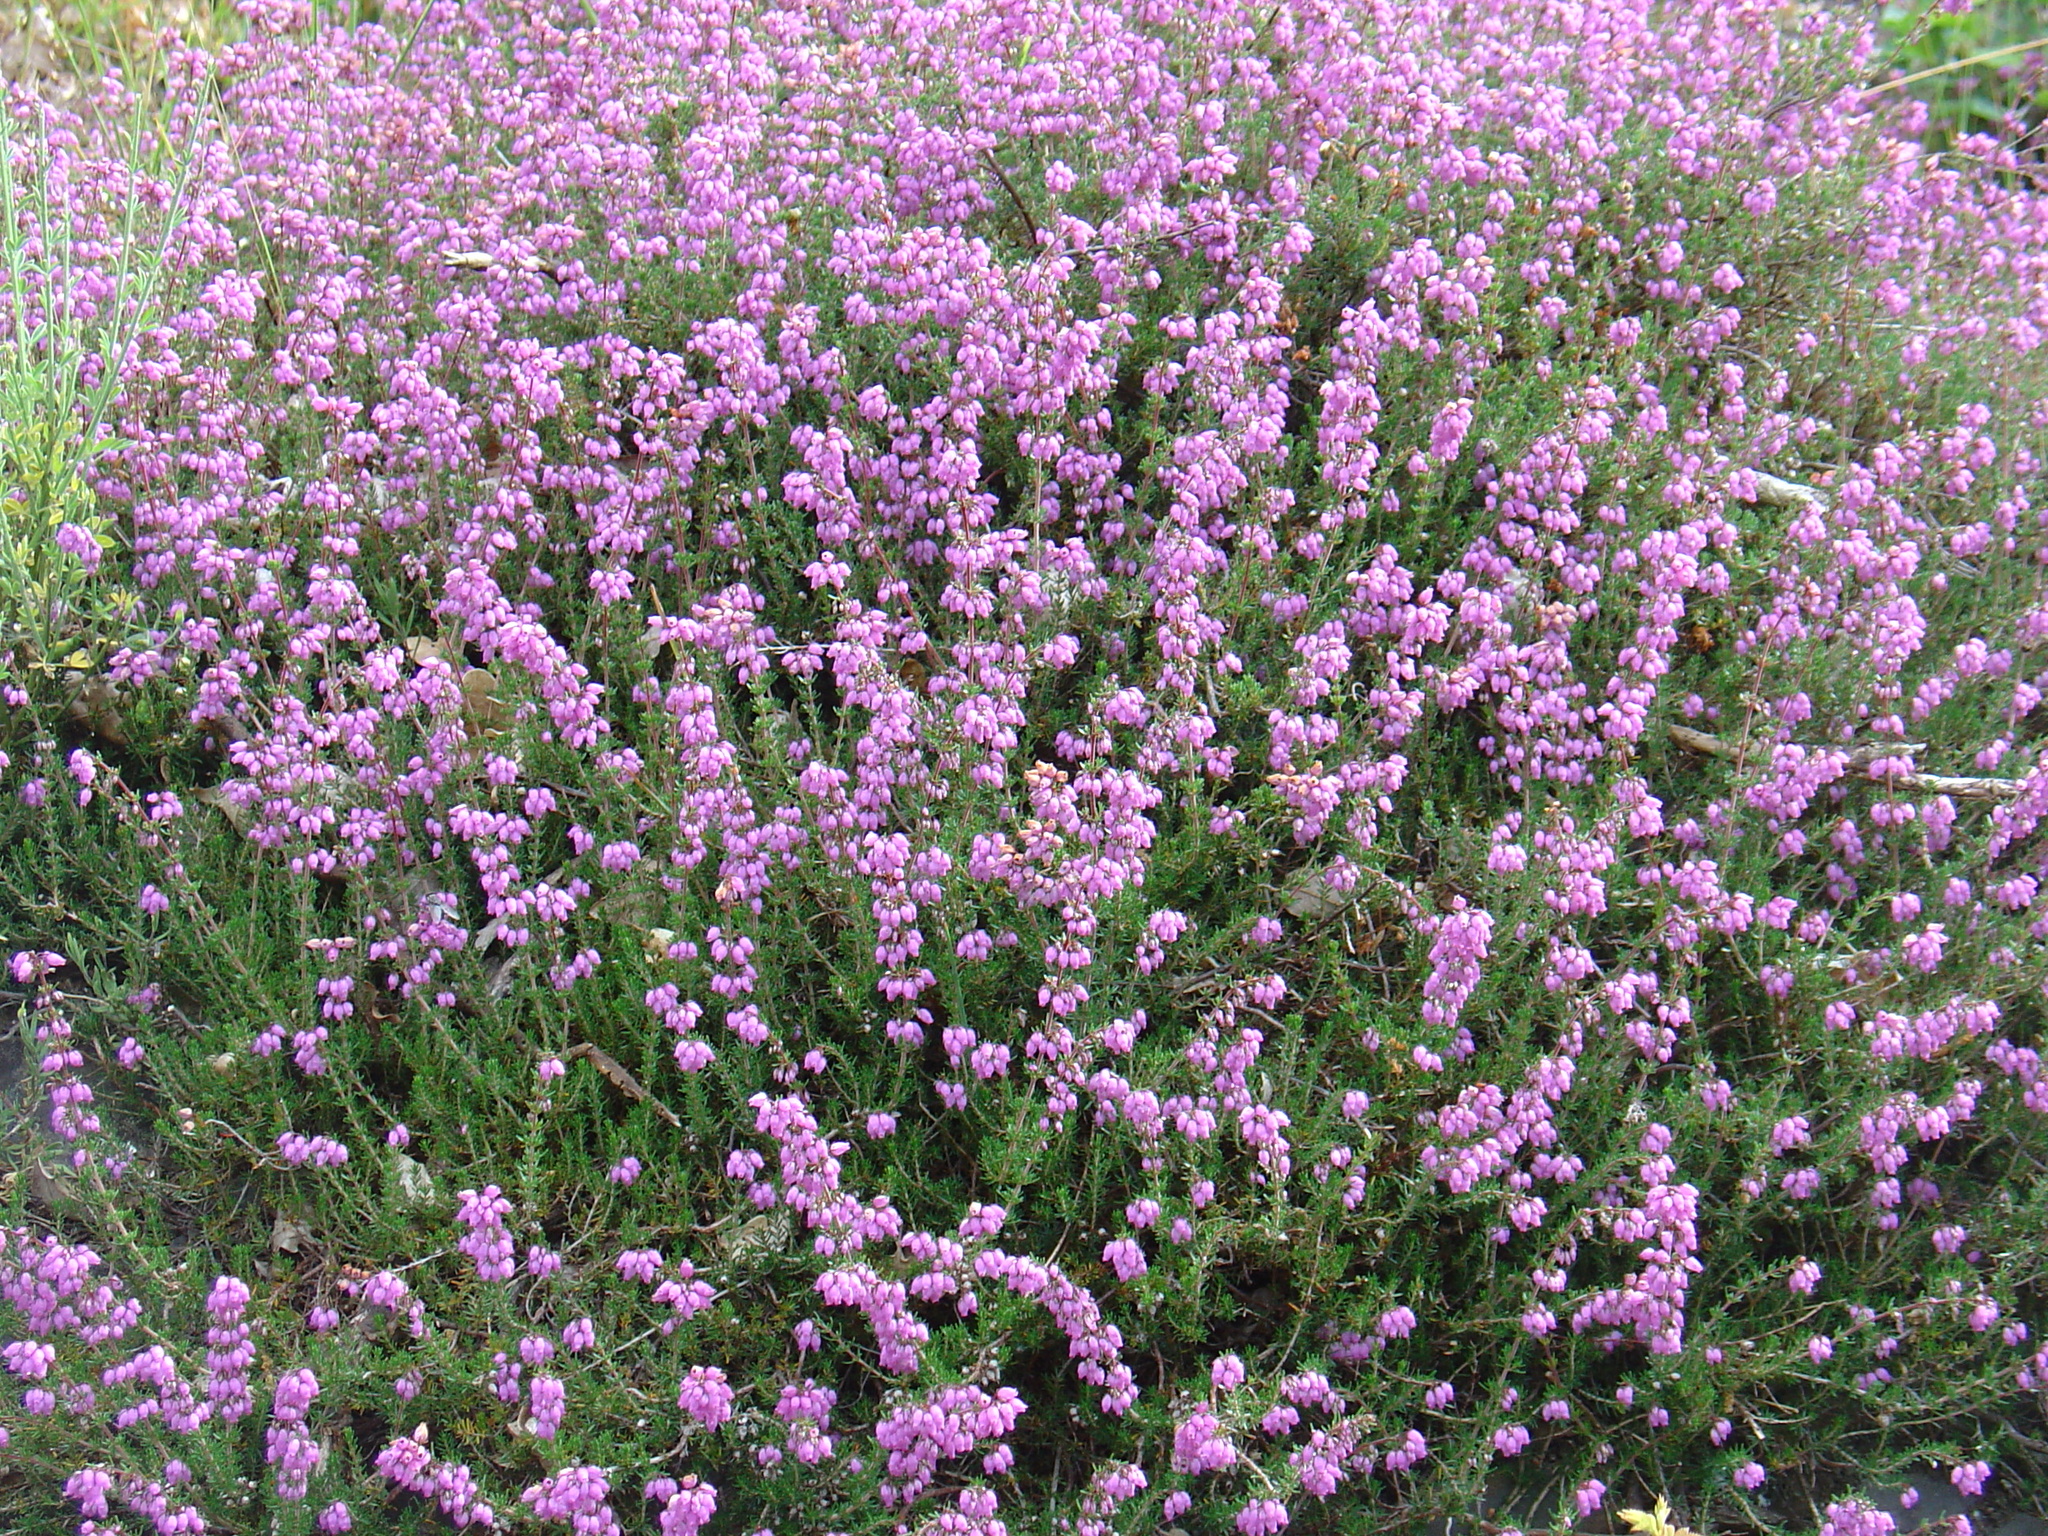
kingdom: Plantae
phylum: Tracheophyta
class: Magnoliopsida
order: Ericales
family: Ericaceae
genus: Erica
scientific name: Erica cinerea
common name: Bell heather
